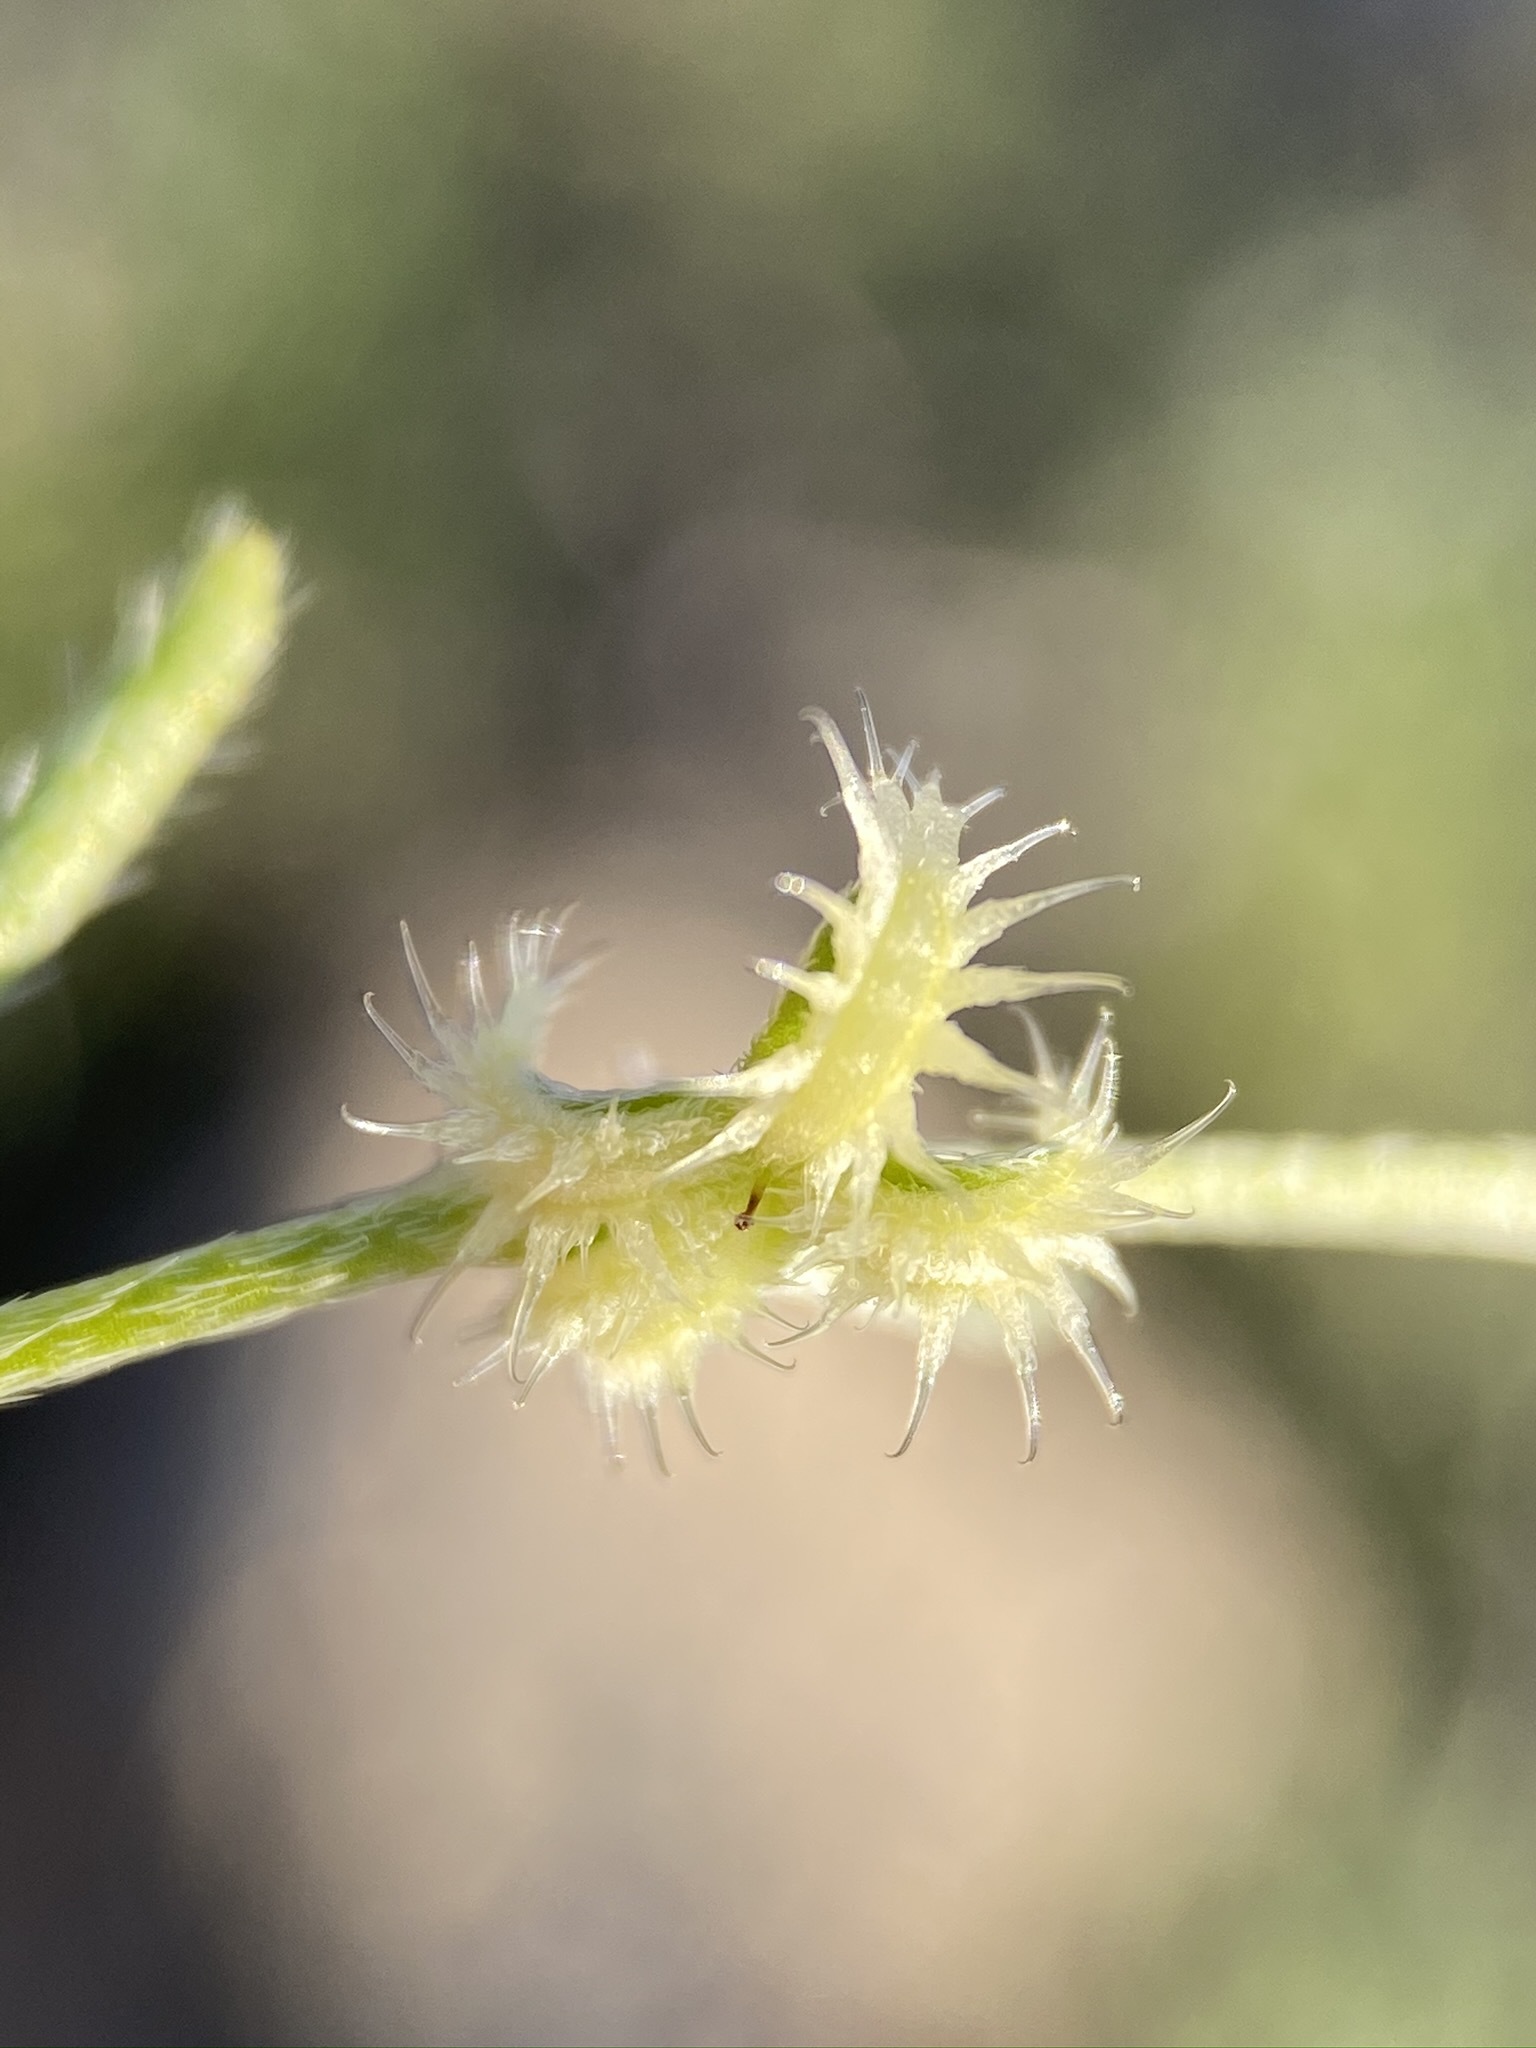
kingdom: Plantae
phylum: Tracheophyta
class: Magnoliopsida
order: Boraginales
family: Boraginaceae
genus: Pectocarya
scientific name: Pectocarya recurvata
